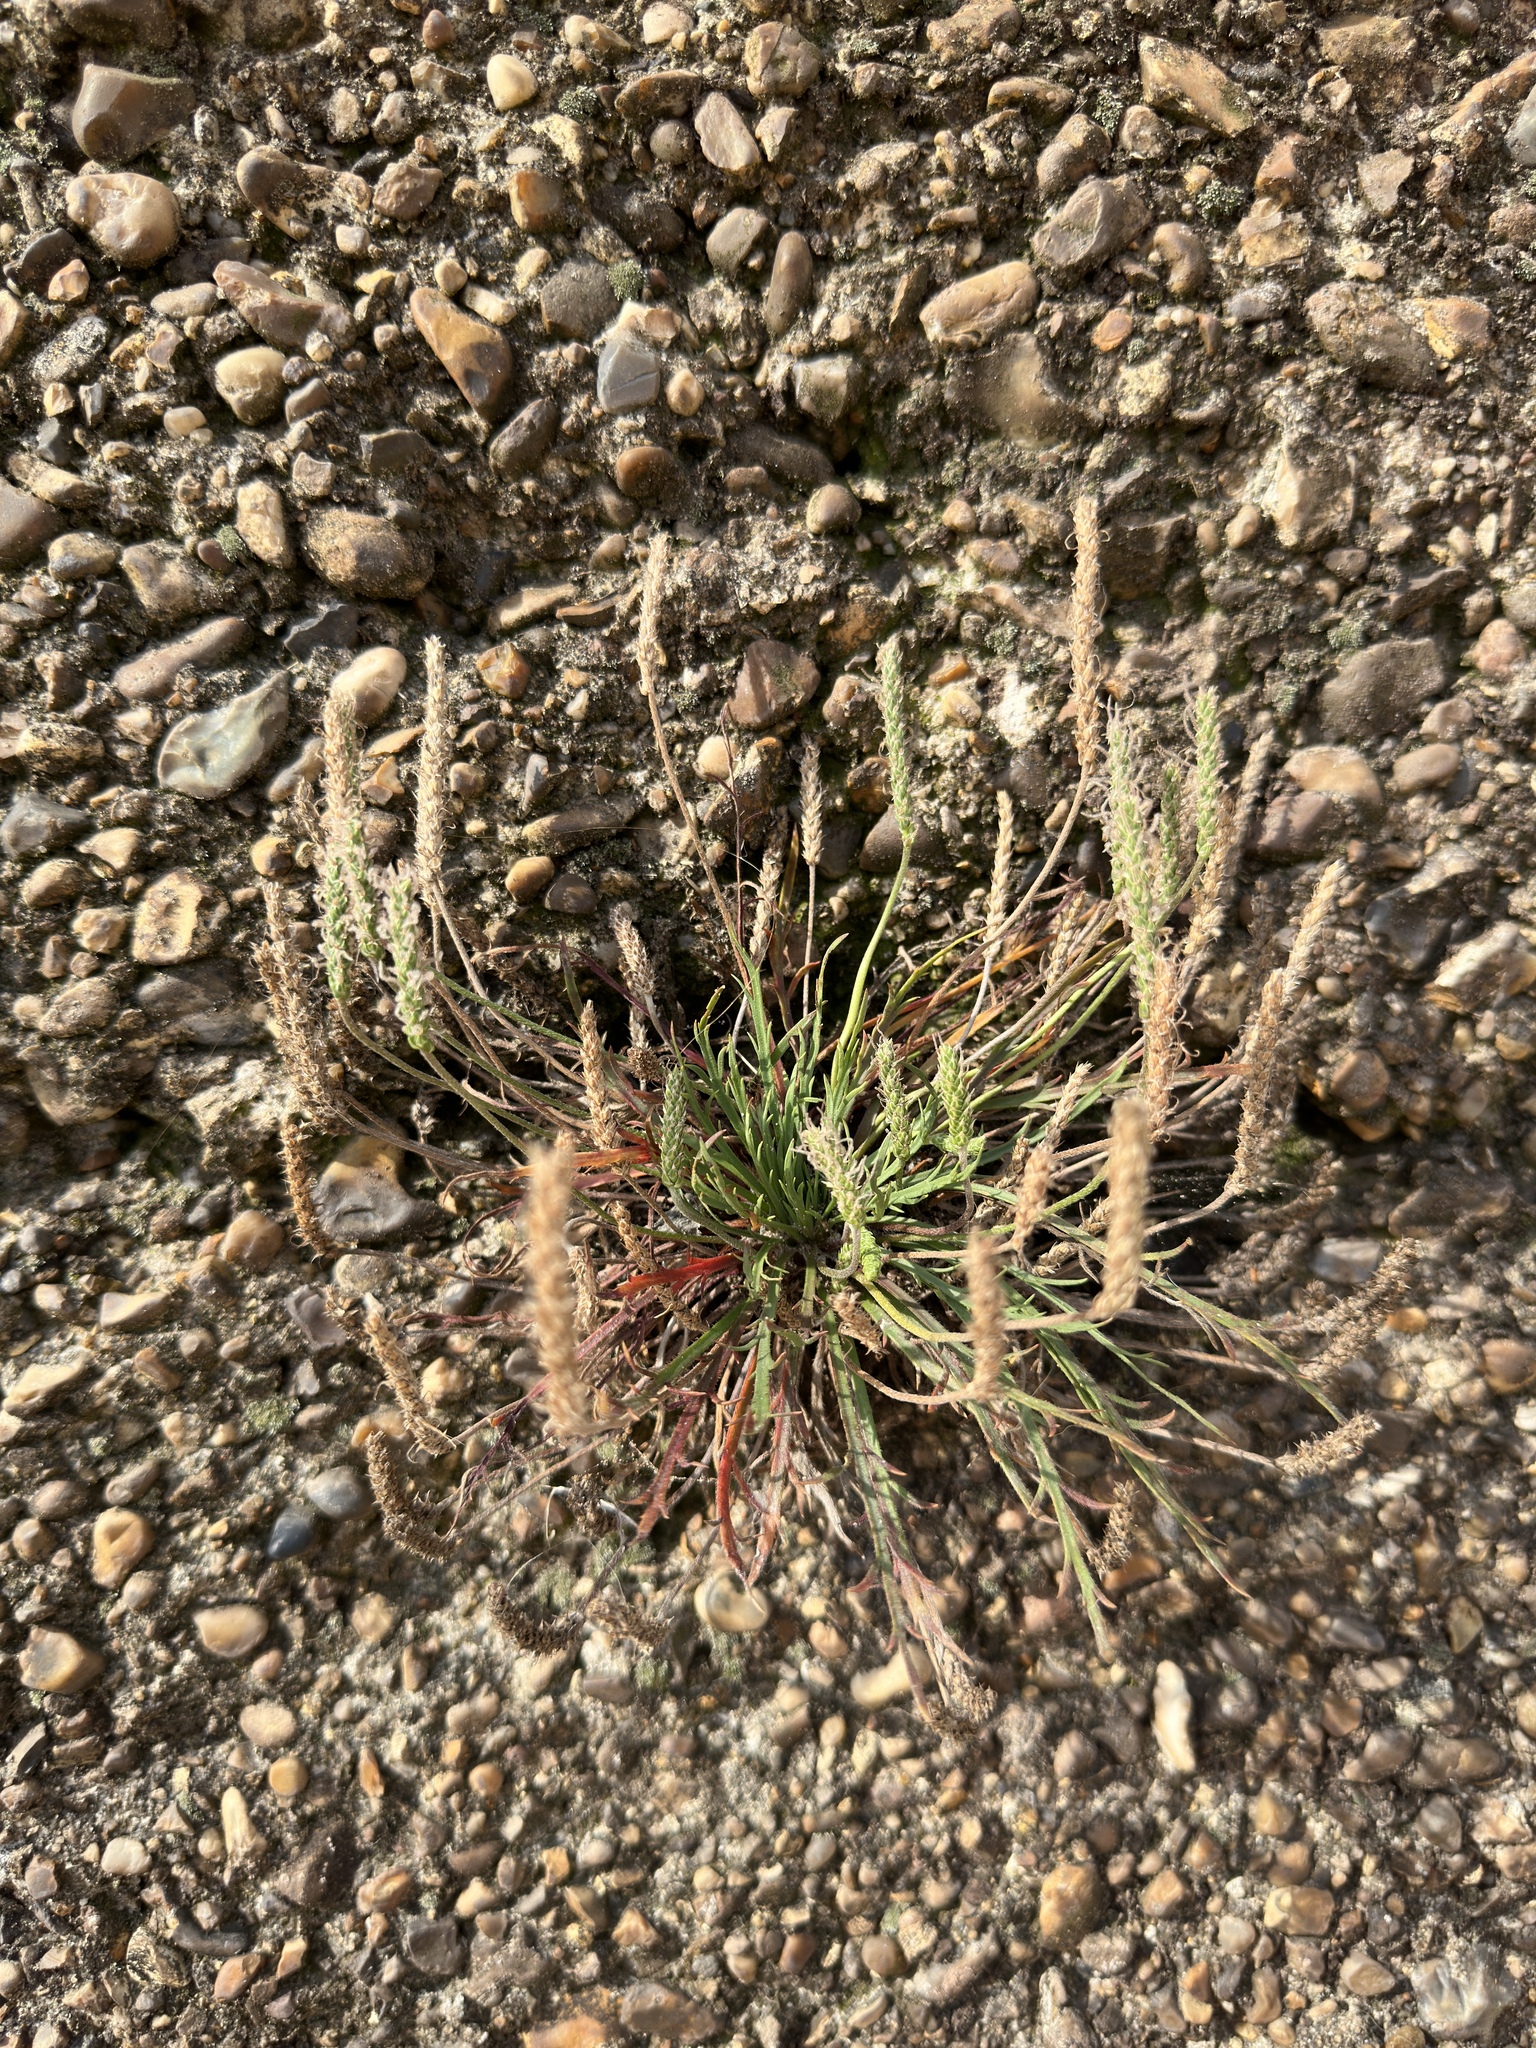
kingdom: Plantae
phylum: Tracheophyta
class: Magnoliopsida
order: Lamiales
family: Plantaginaceae
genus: Plantago
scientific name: Plantago coronopus
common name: Buck's-horn plantain
